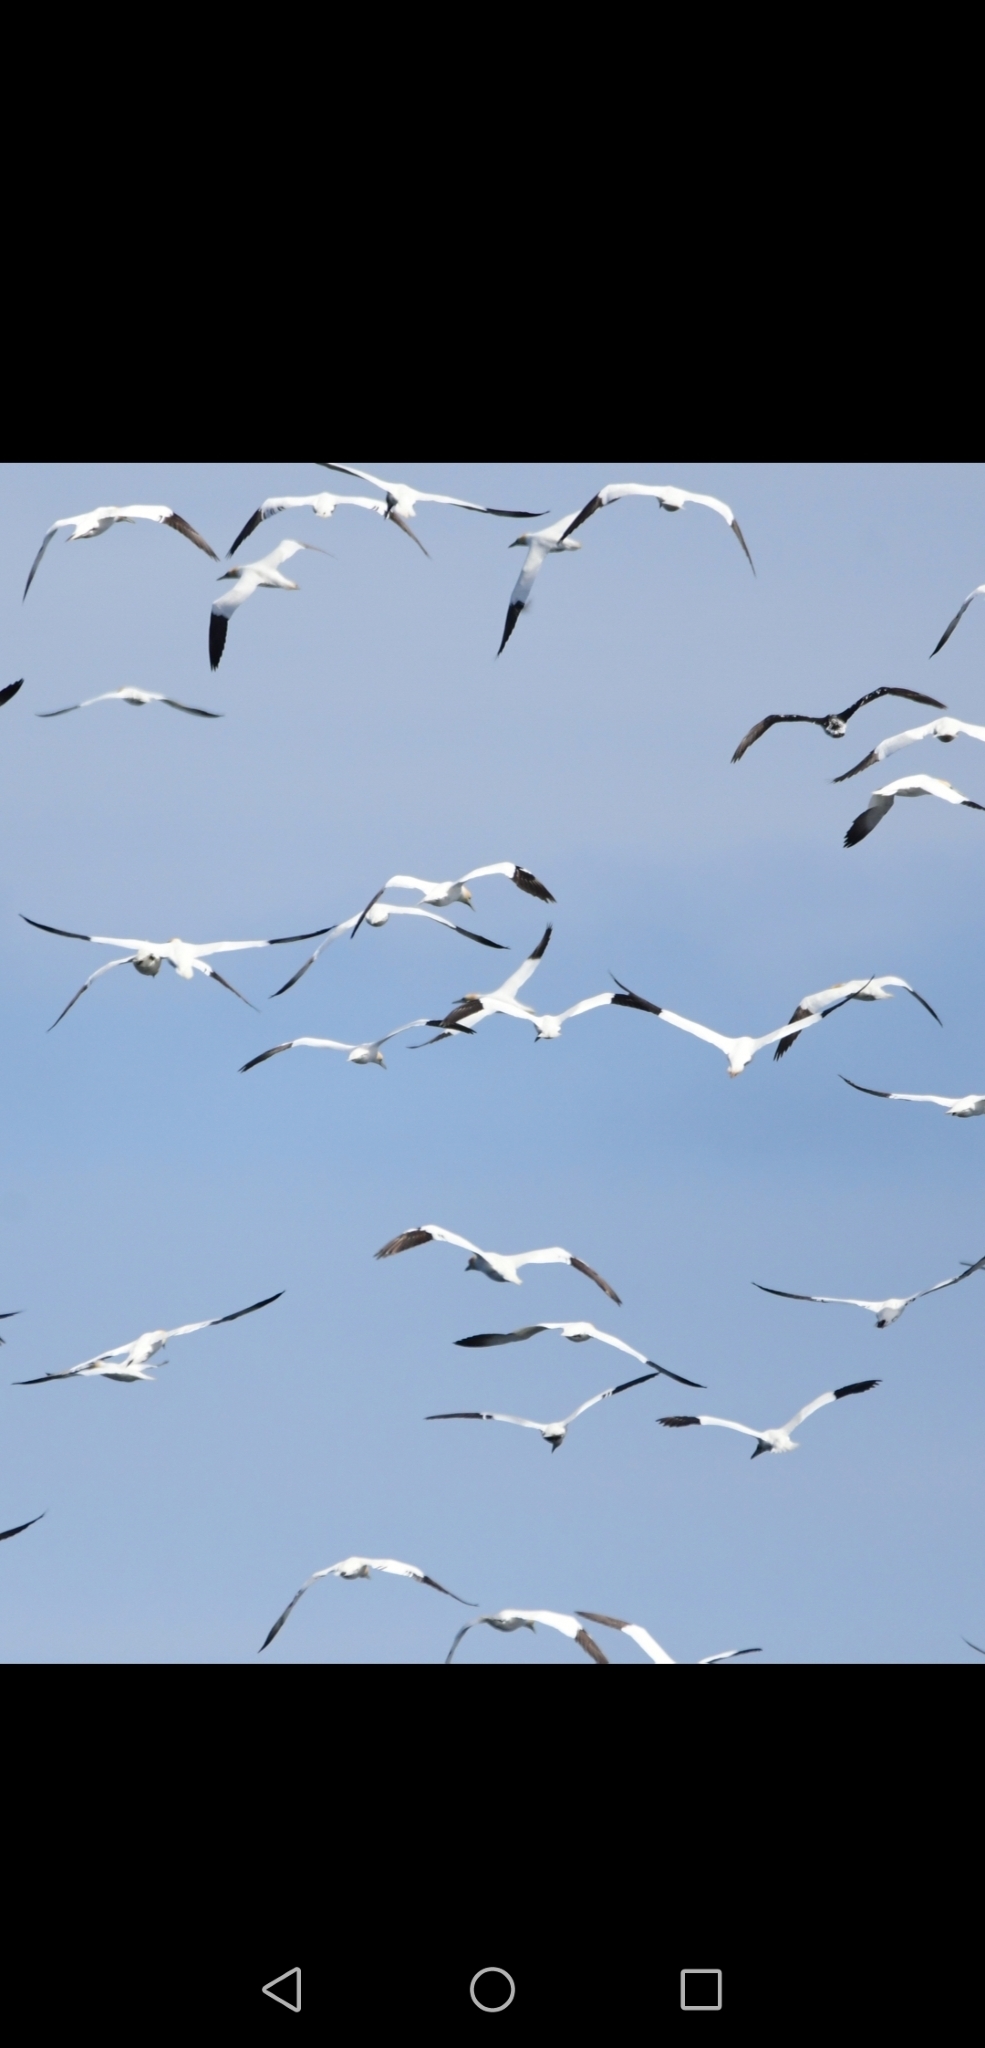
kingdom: Animalia
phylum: Chordata
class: Aves
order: Suliformes
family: Sulidae
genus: Morus
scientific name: Morus bassanus
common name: Northern gannet
